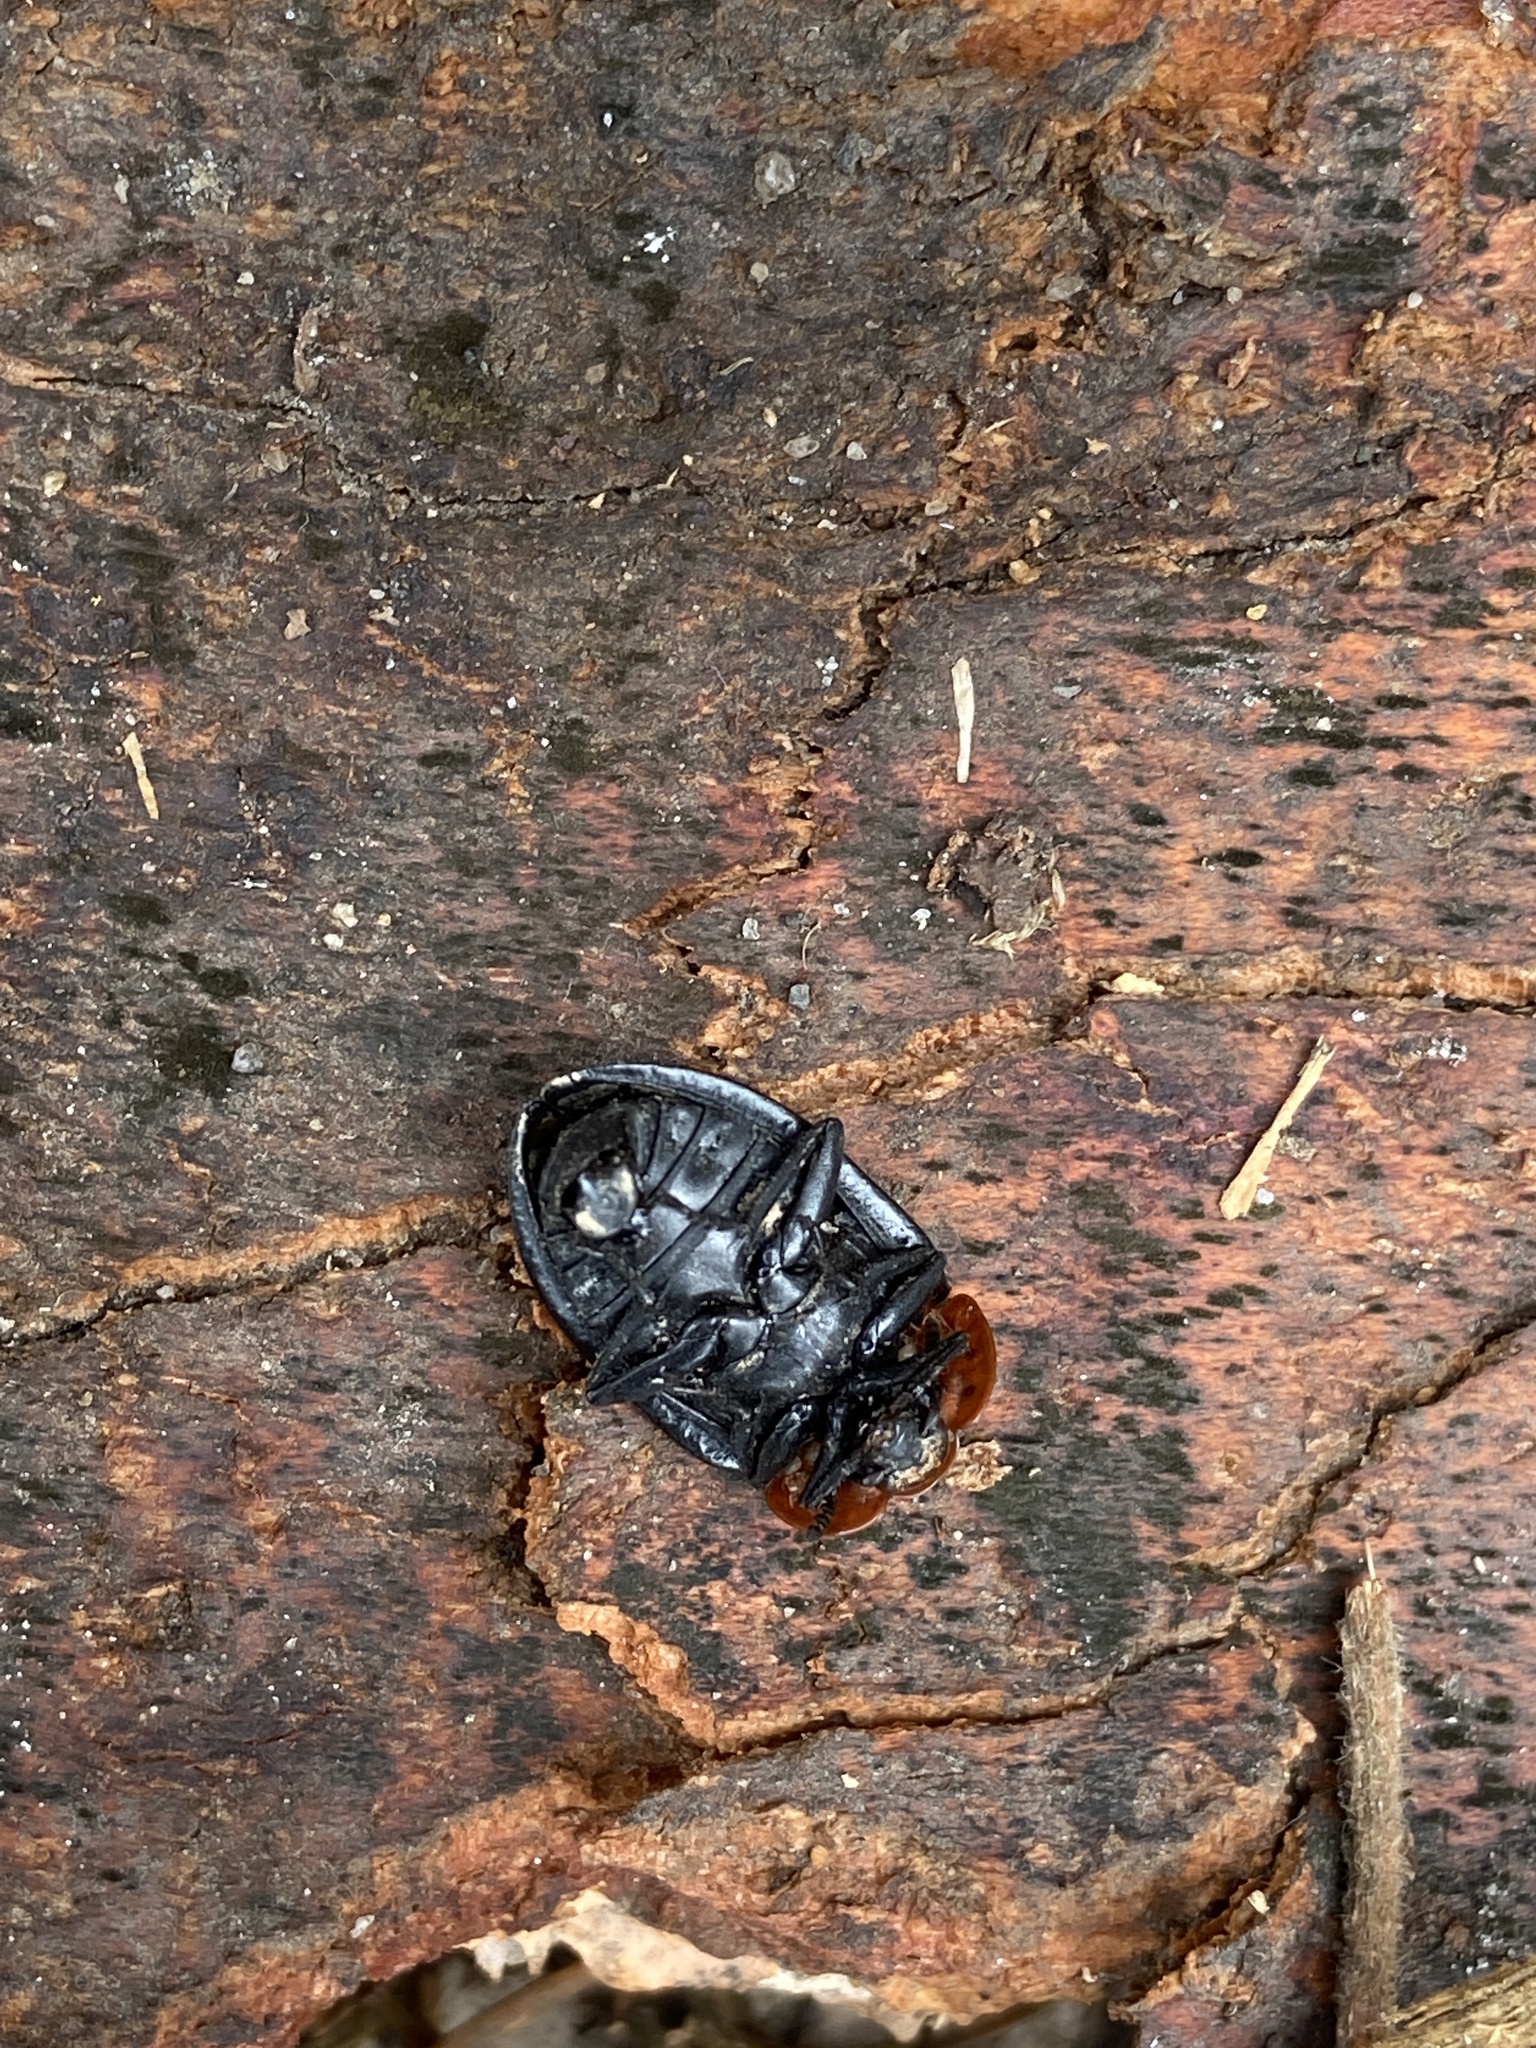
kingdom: Animalia
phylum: Arthropoda
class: Insecta
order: Coleoptera
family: Staphylinidae
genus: Oiceoptoma
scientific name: Oiceoptoma thoracicum
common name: Red-breasted carrion beetle
